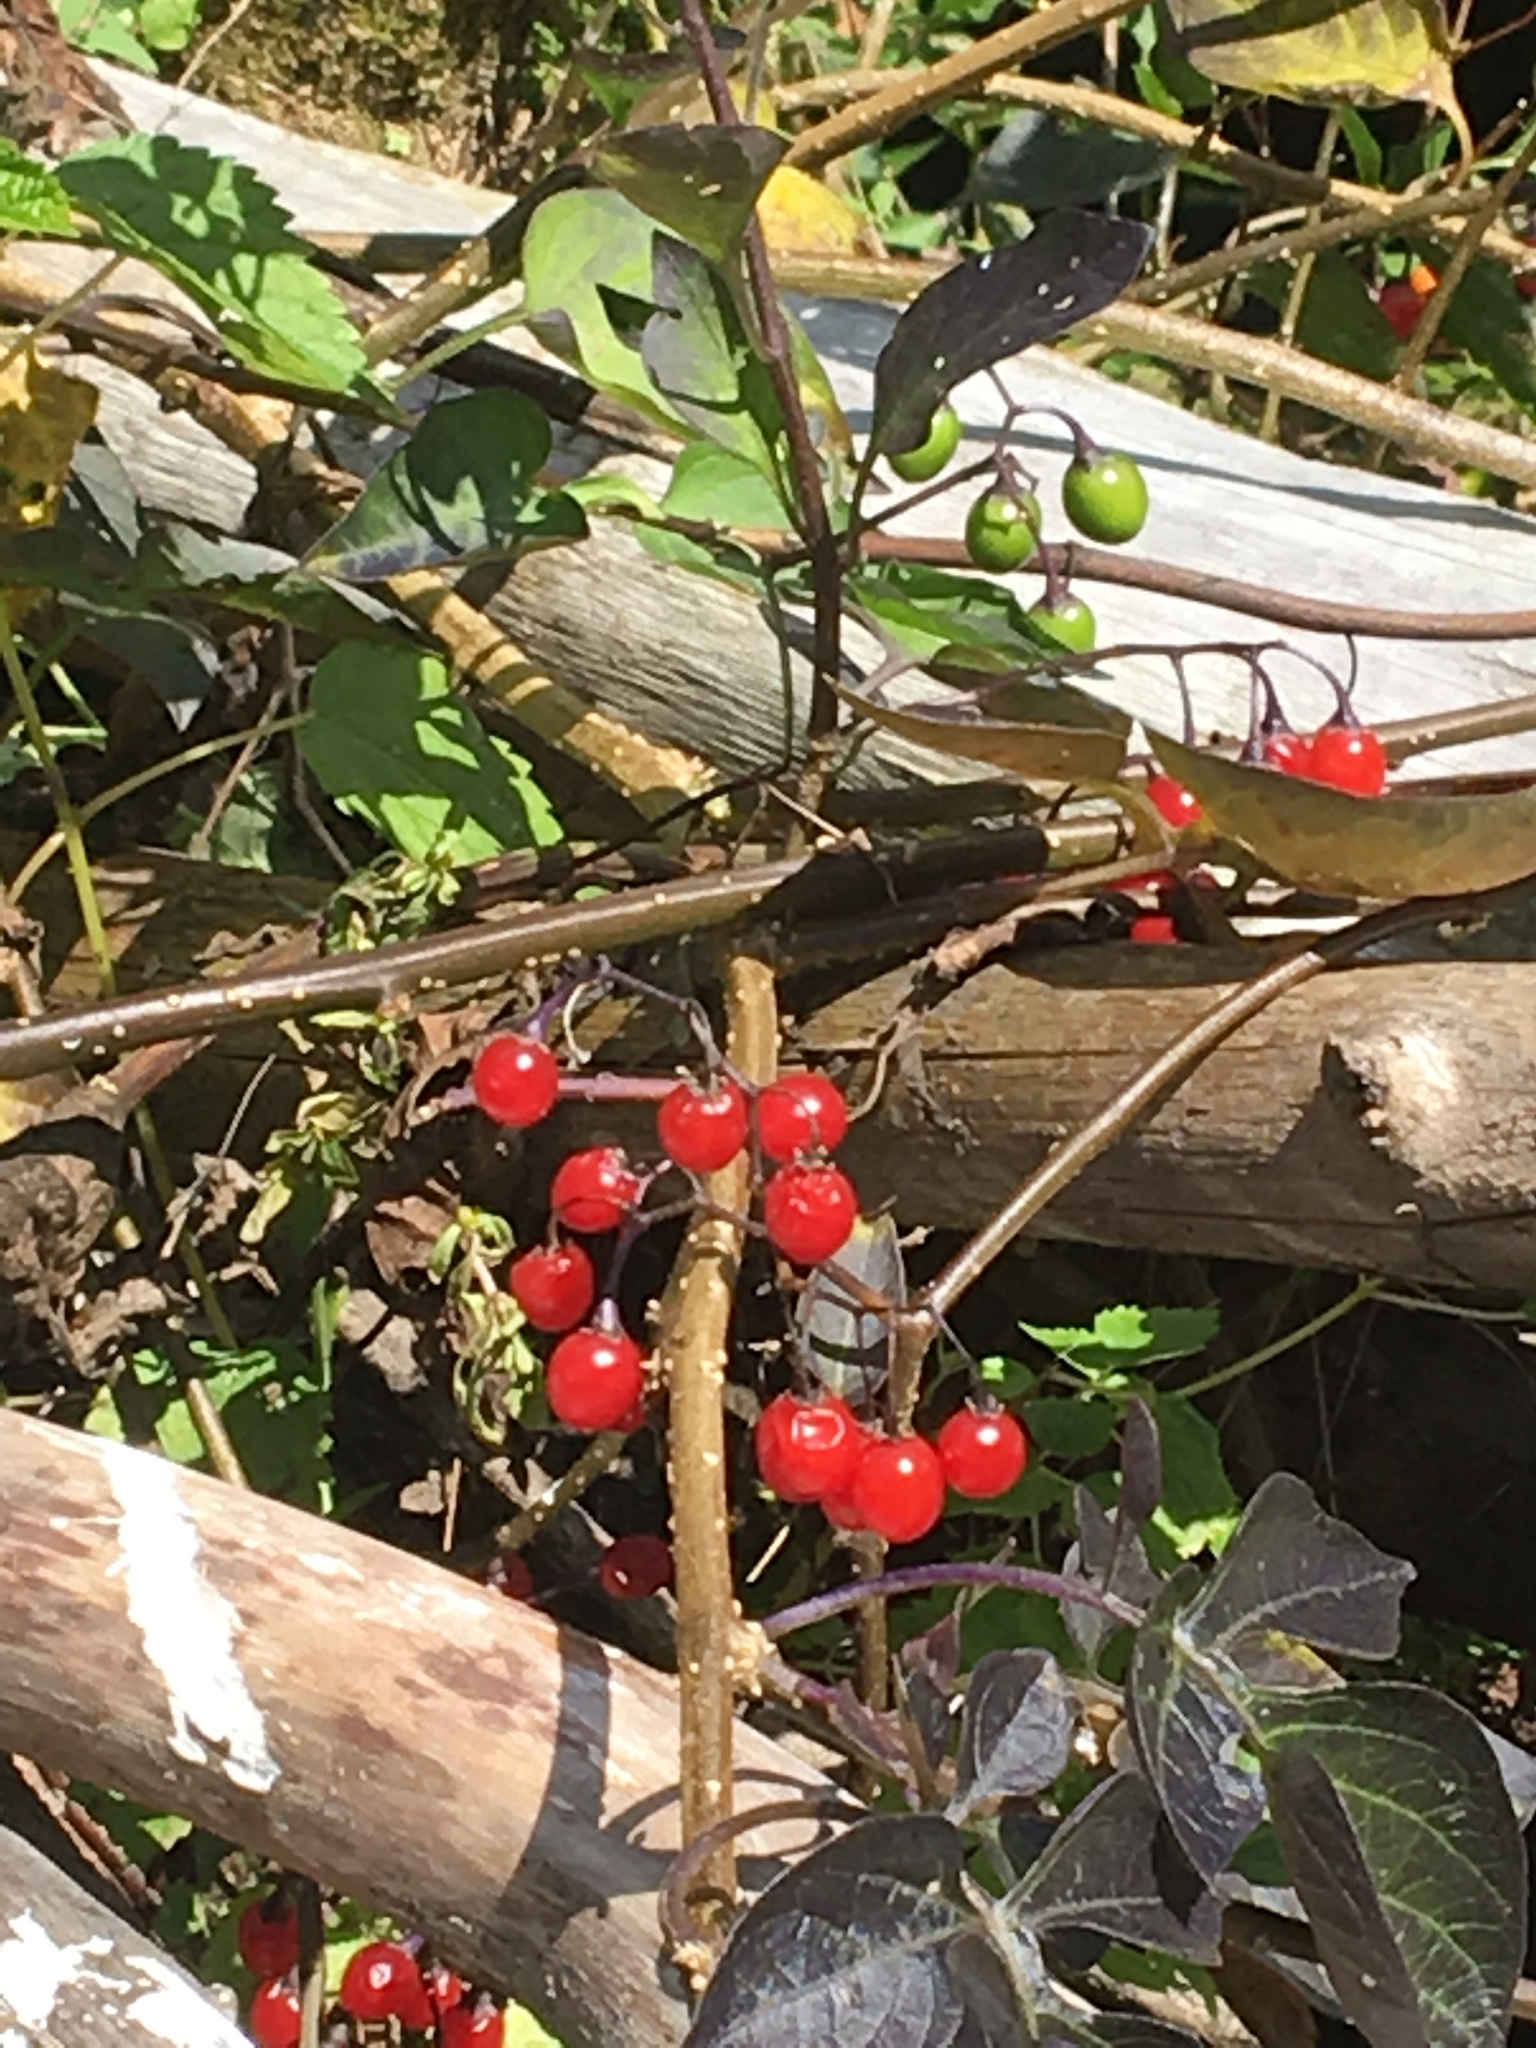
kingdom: Plantae
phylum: Tracheophyta
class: Magnoliopsida
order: Solanales
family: Solanaceae
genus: Solanum
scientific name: Solanum dulcamara
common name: Climbing nightshade
